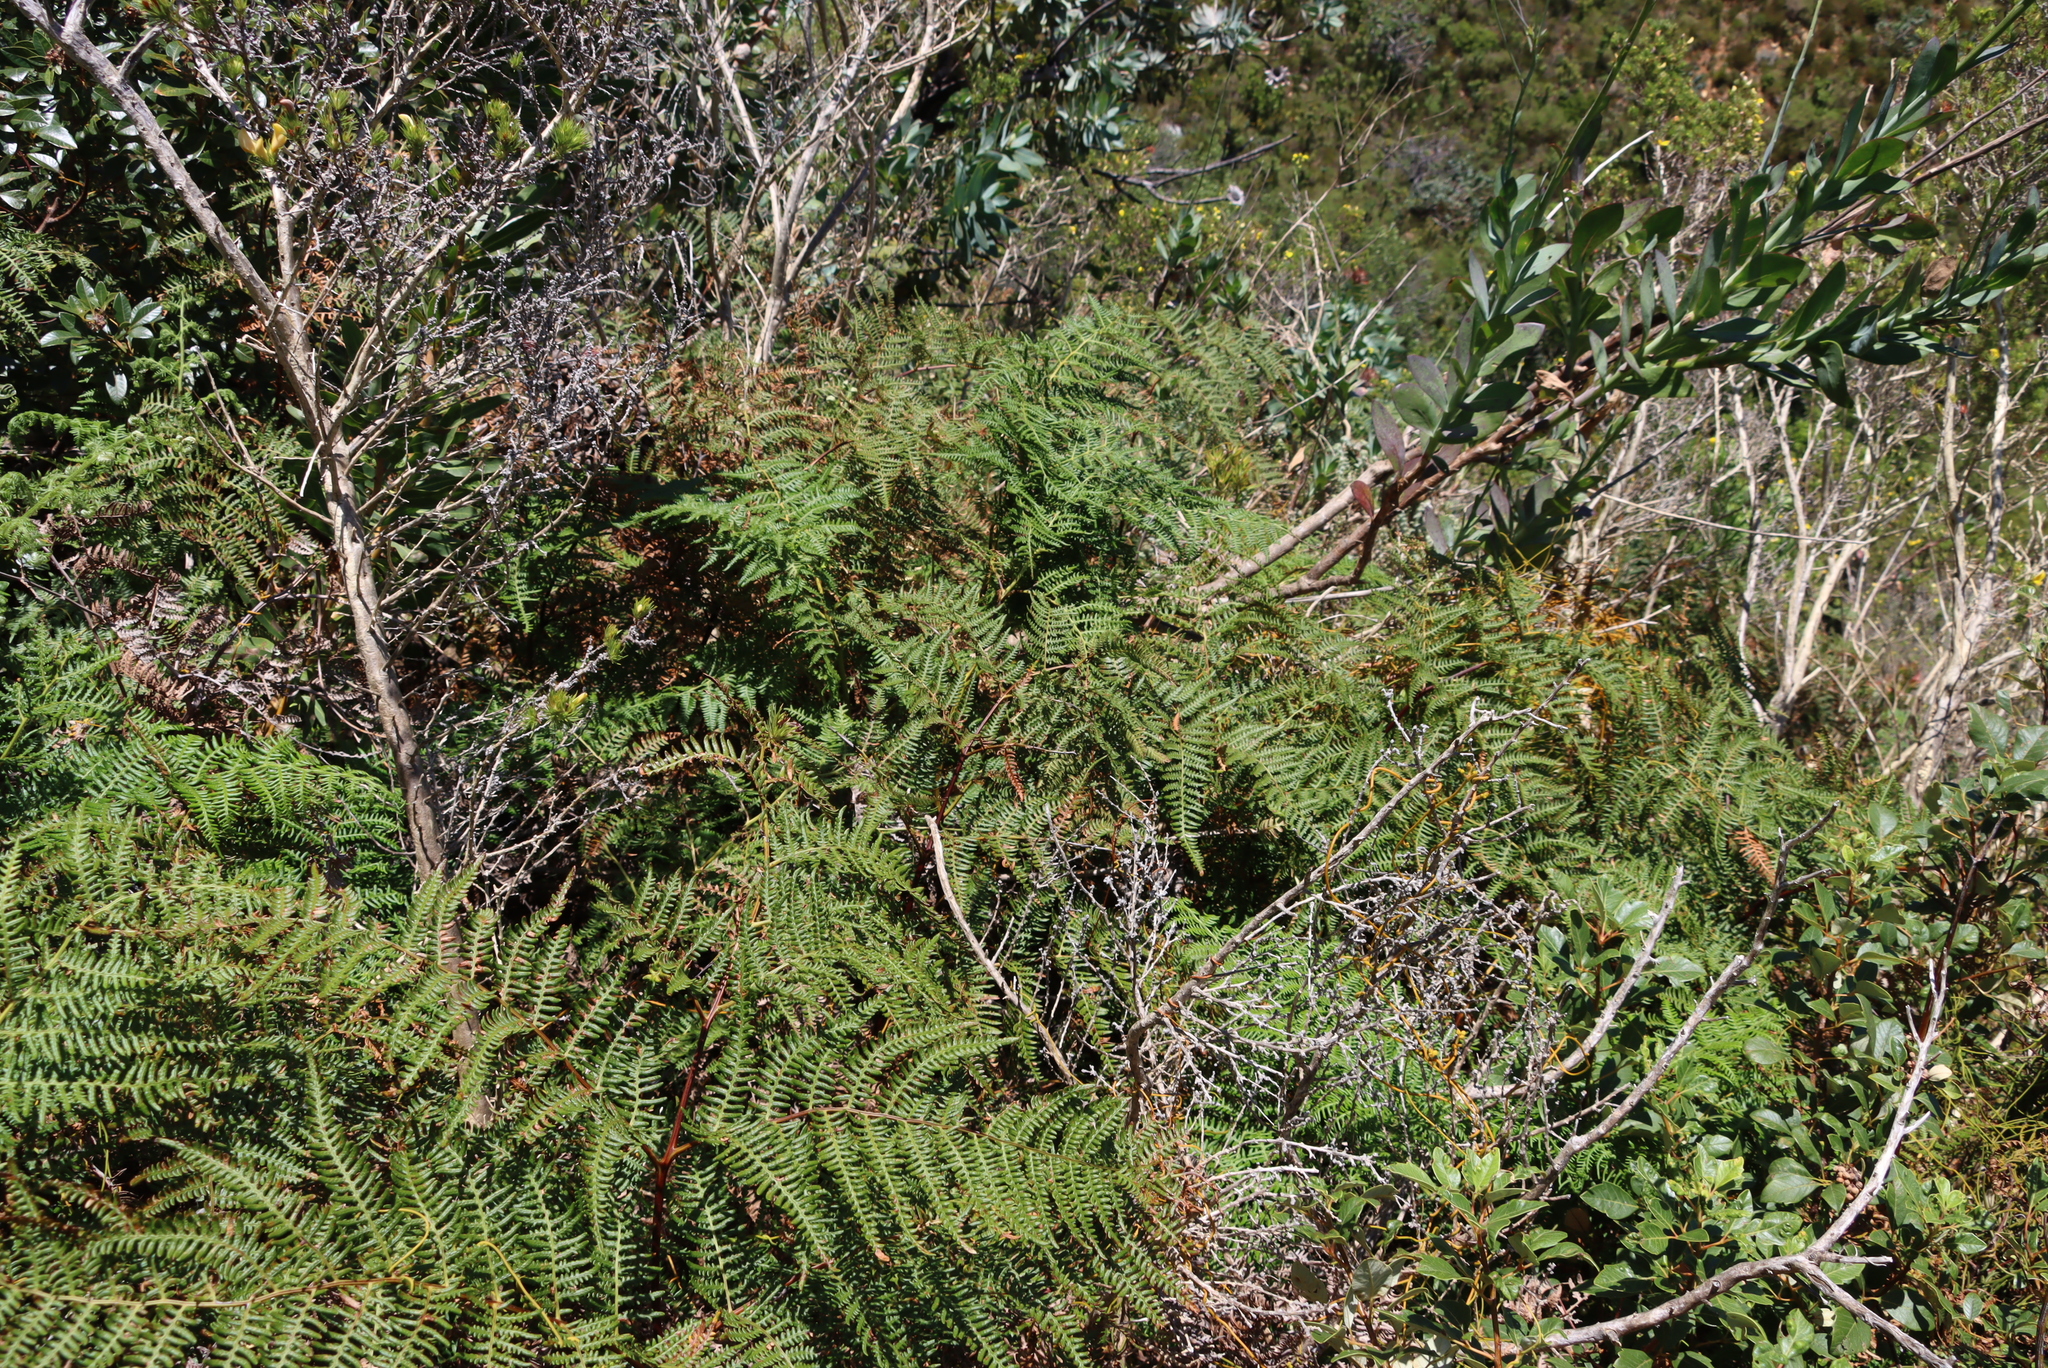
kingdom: Plantae
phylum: Tracheophyta
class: Polypodiopsida
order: Polypodiales
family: Dennstaedtiaceae
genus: Pteridium
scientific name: Pteridium aquilinum
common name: Bracken
